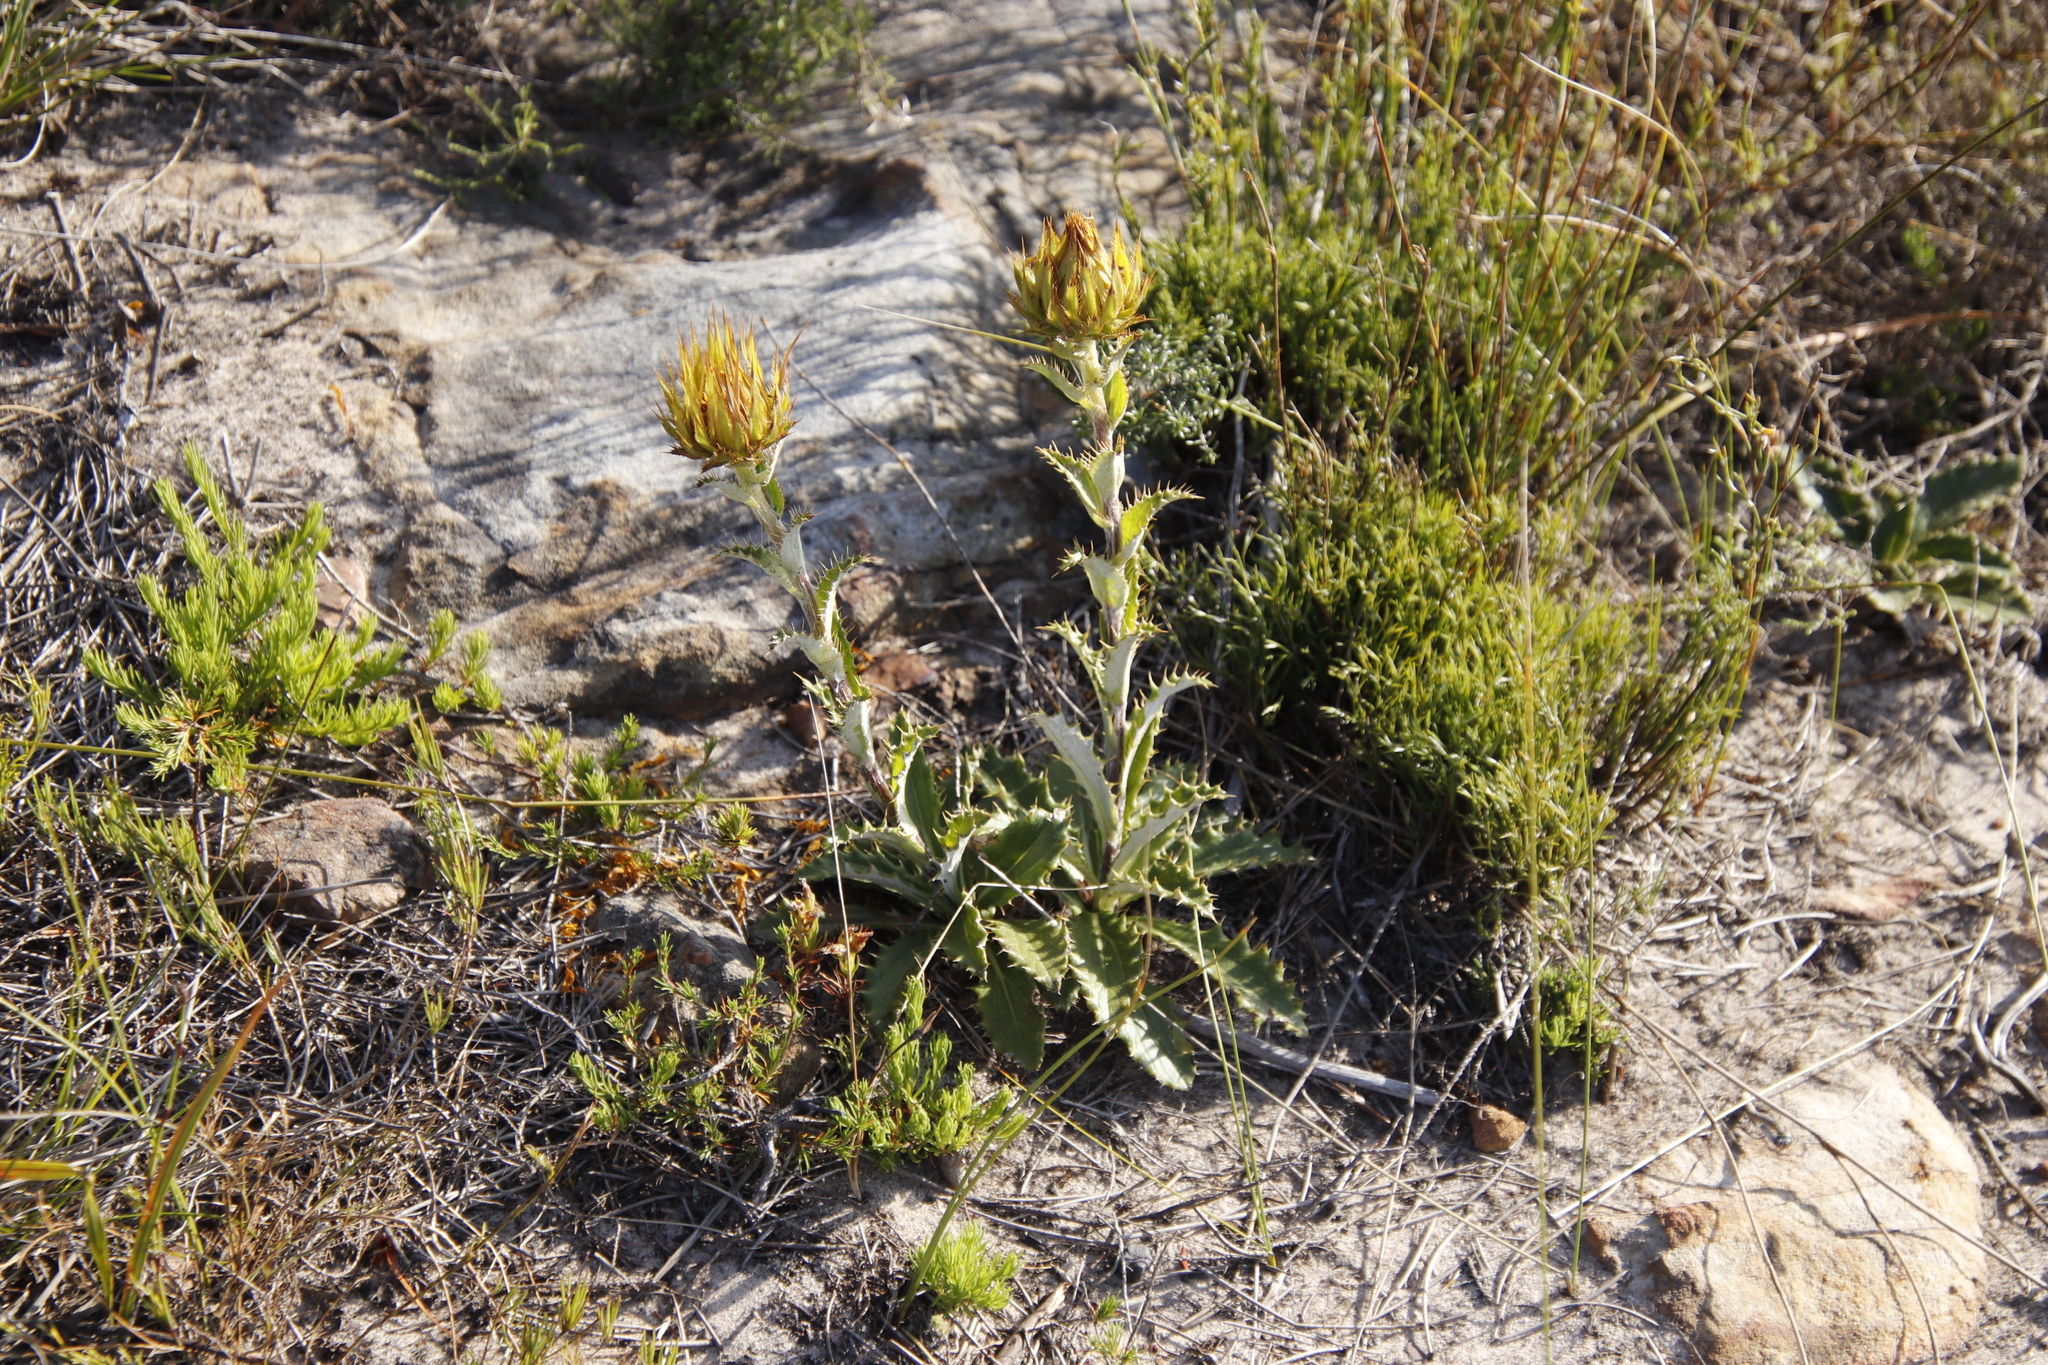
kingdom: Plantae
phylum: Tracheophyta
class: Magnoliopsida
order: Asterales
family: Asteraceae
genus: Berkheya
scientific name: Berkheya armata
